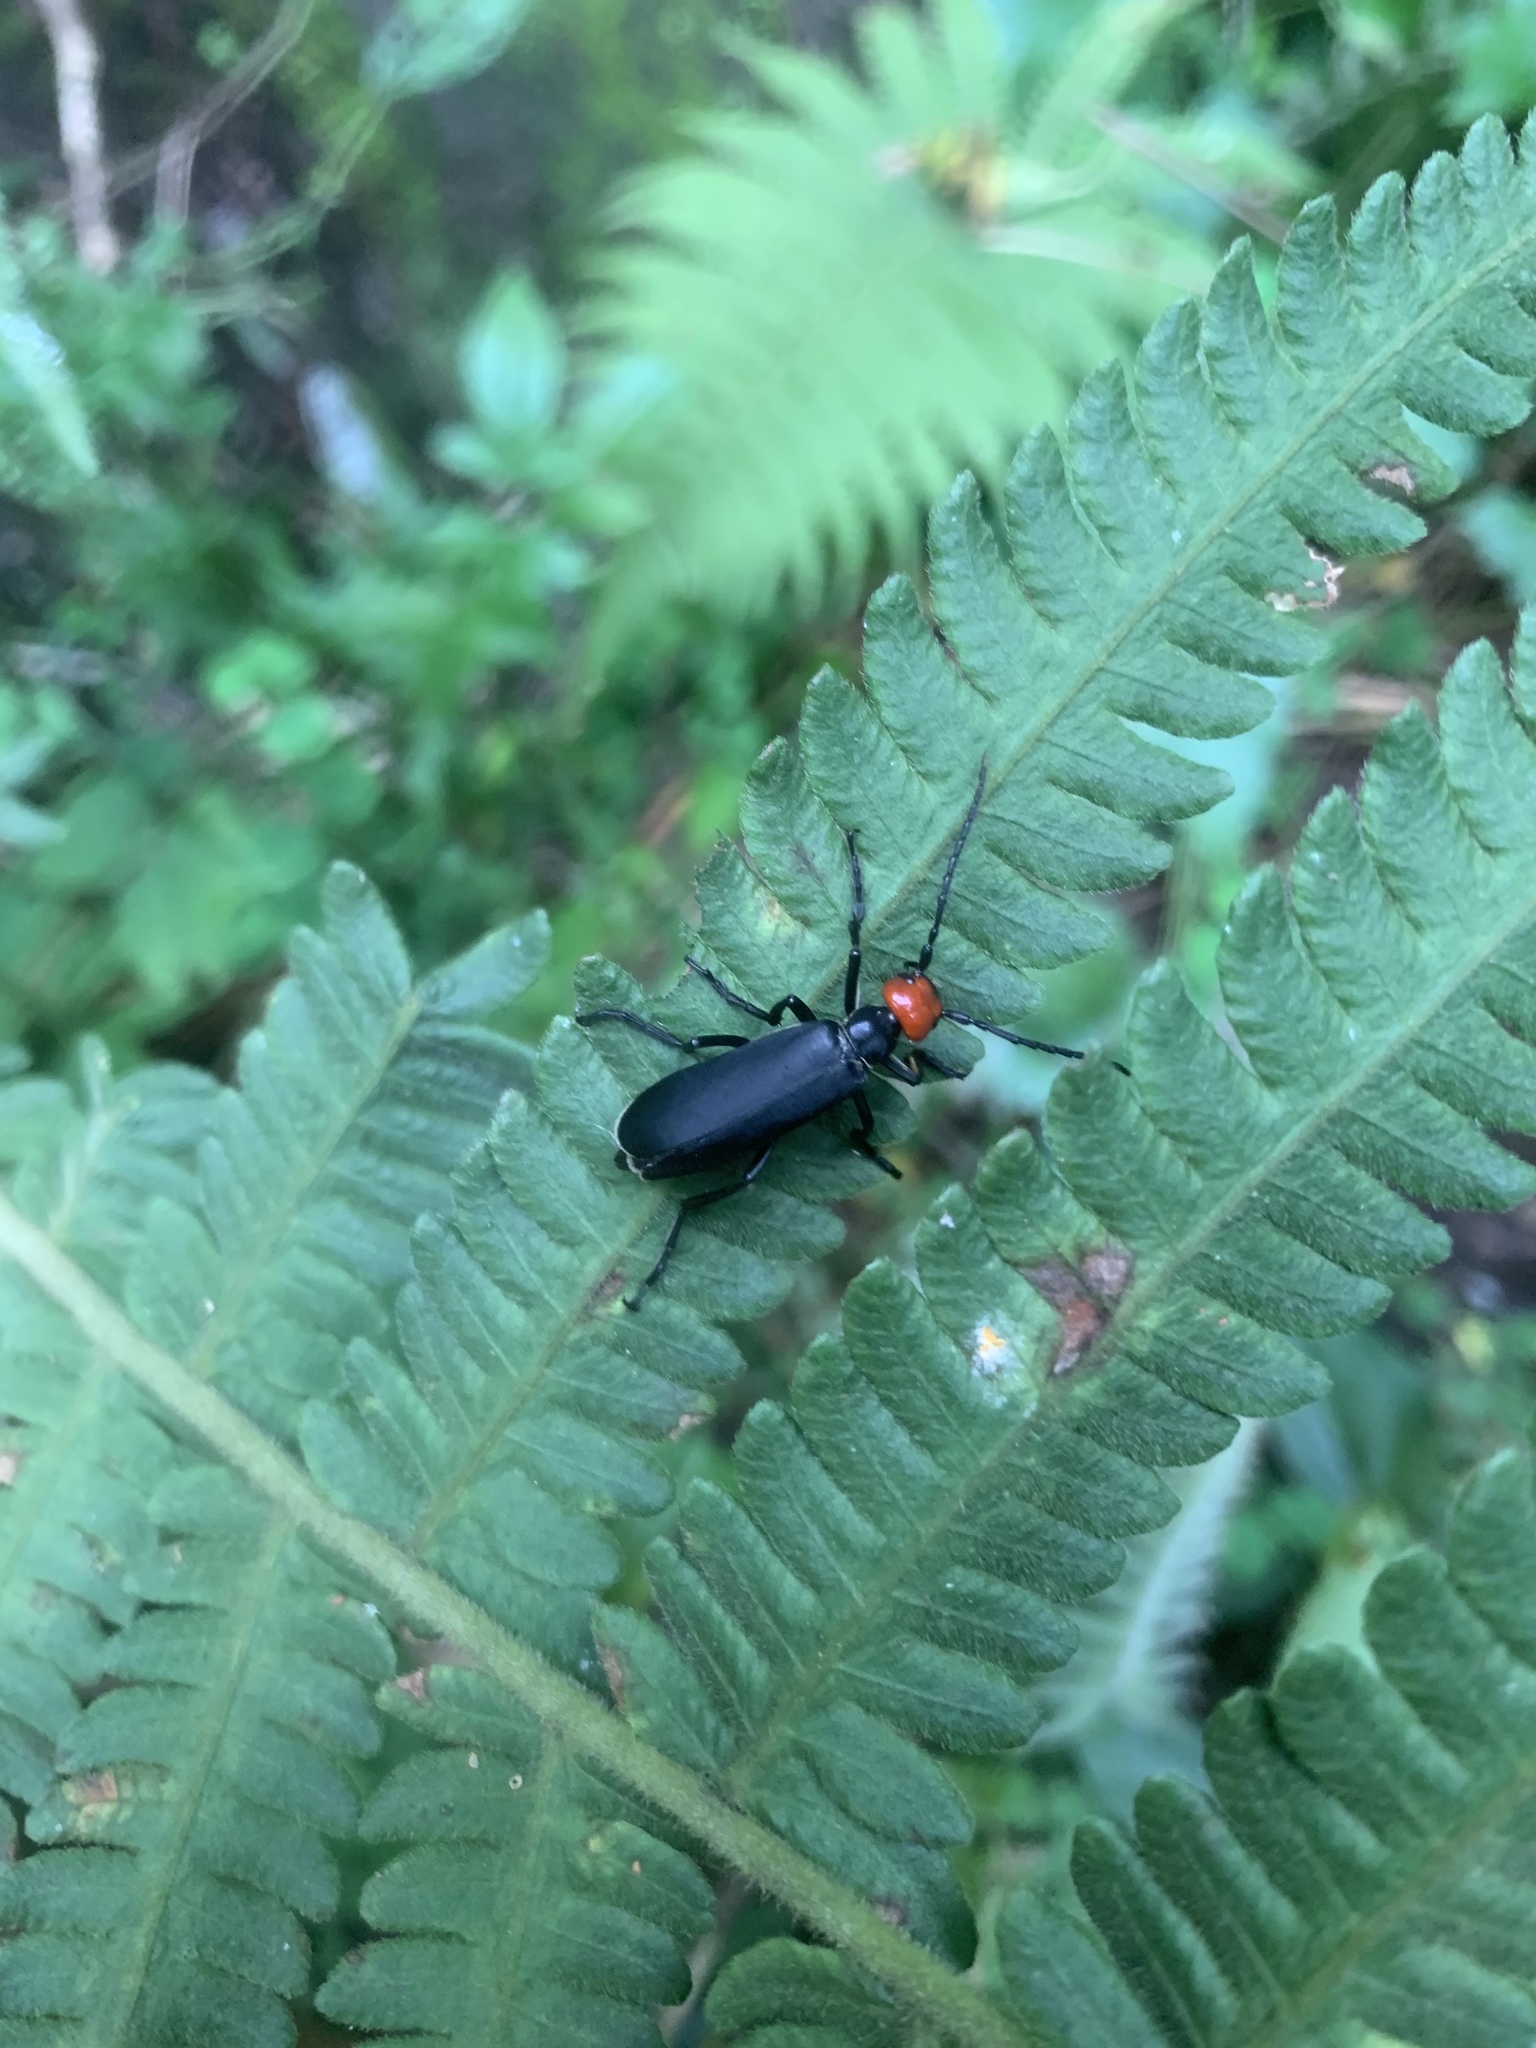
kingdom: Animalia
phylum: Arthropoda
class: Insecta
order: Coleoptera
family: Meloidae
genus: Epicauta
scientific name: Epicauta hirticornis
